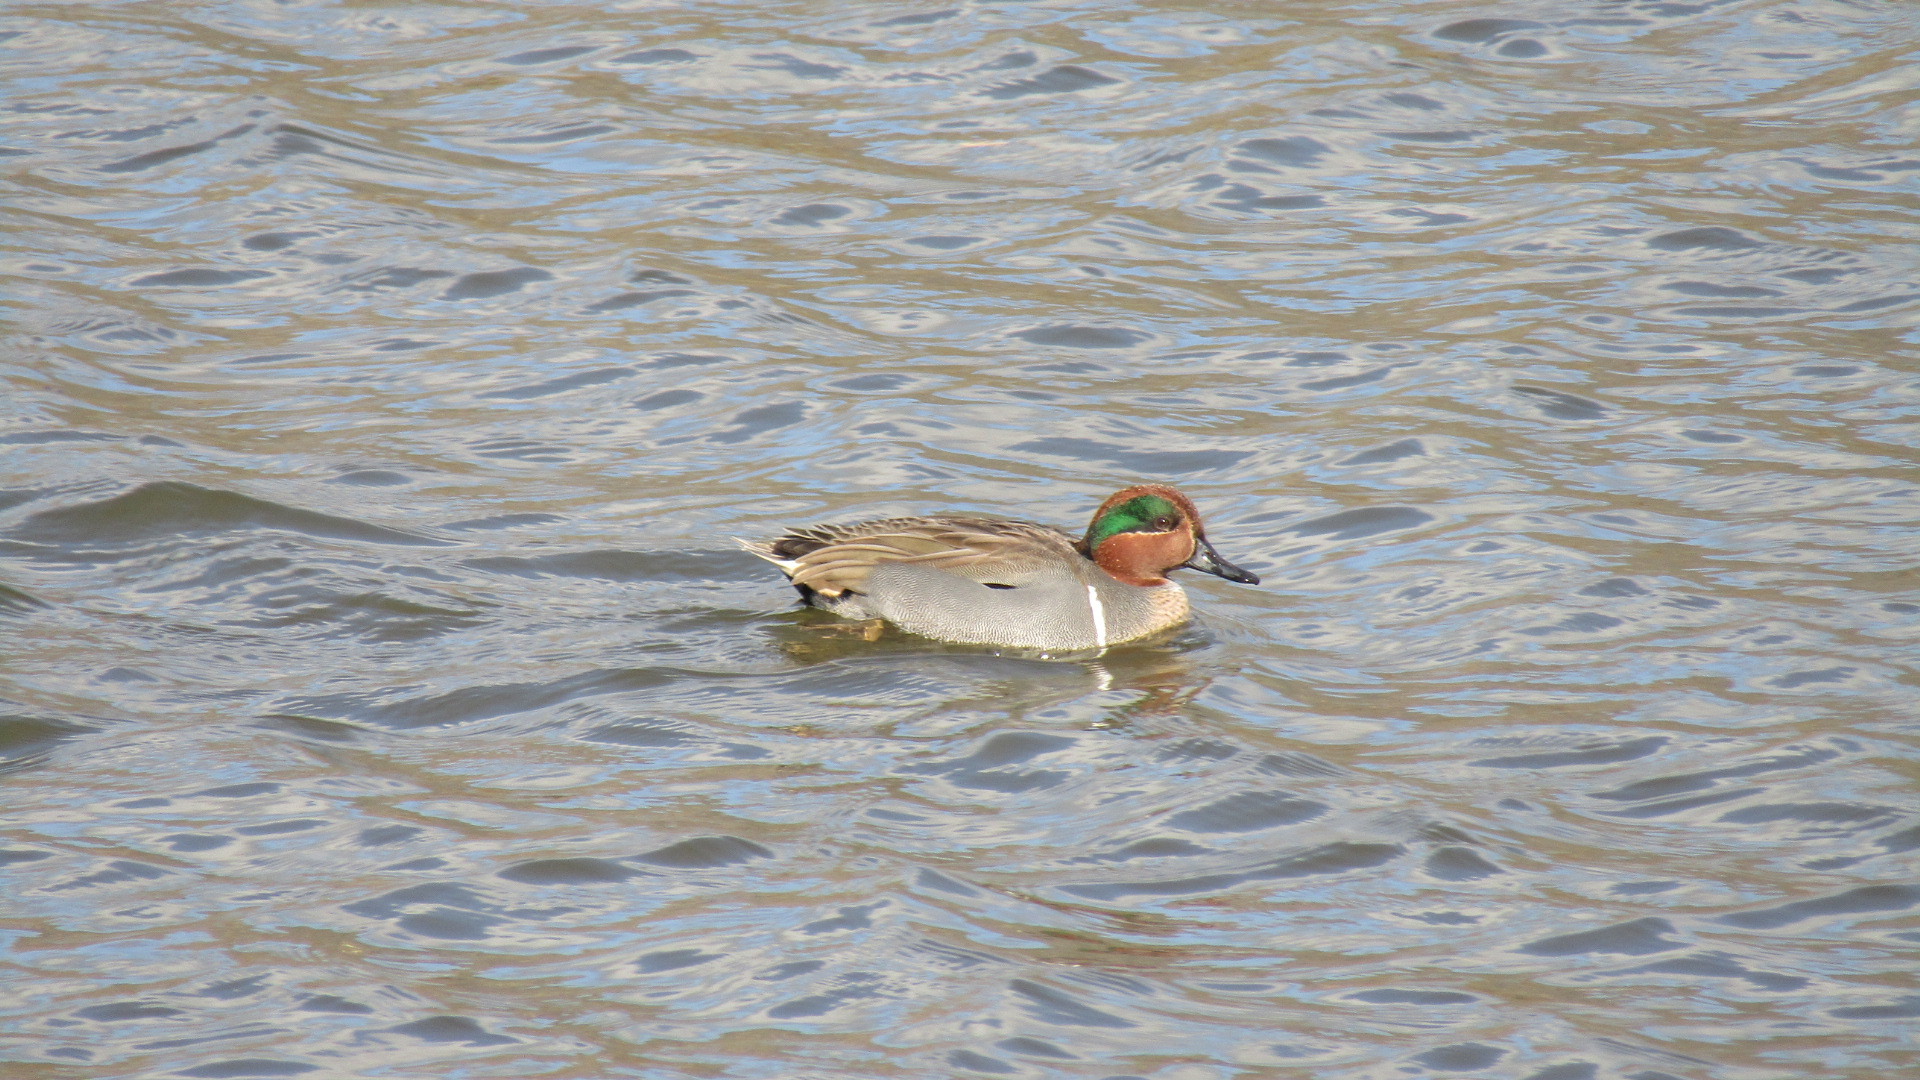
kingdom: Animalia
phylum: Chordata
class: Aves
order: Anseriformes
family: Anatidae
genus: Anas
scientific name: Anas crecca
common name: Eurasian teal
